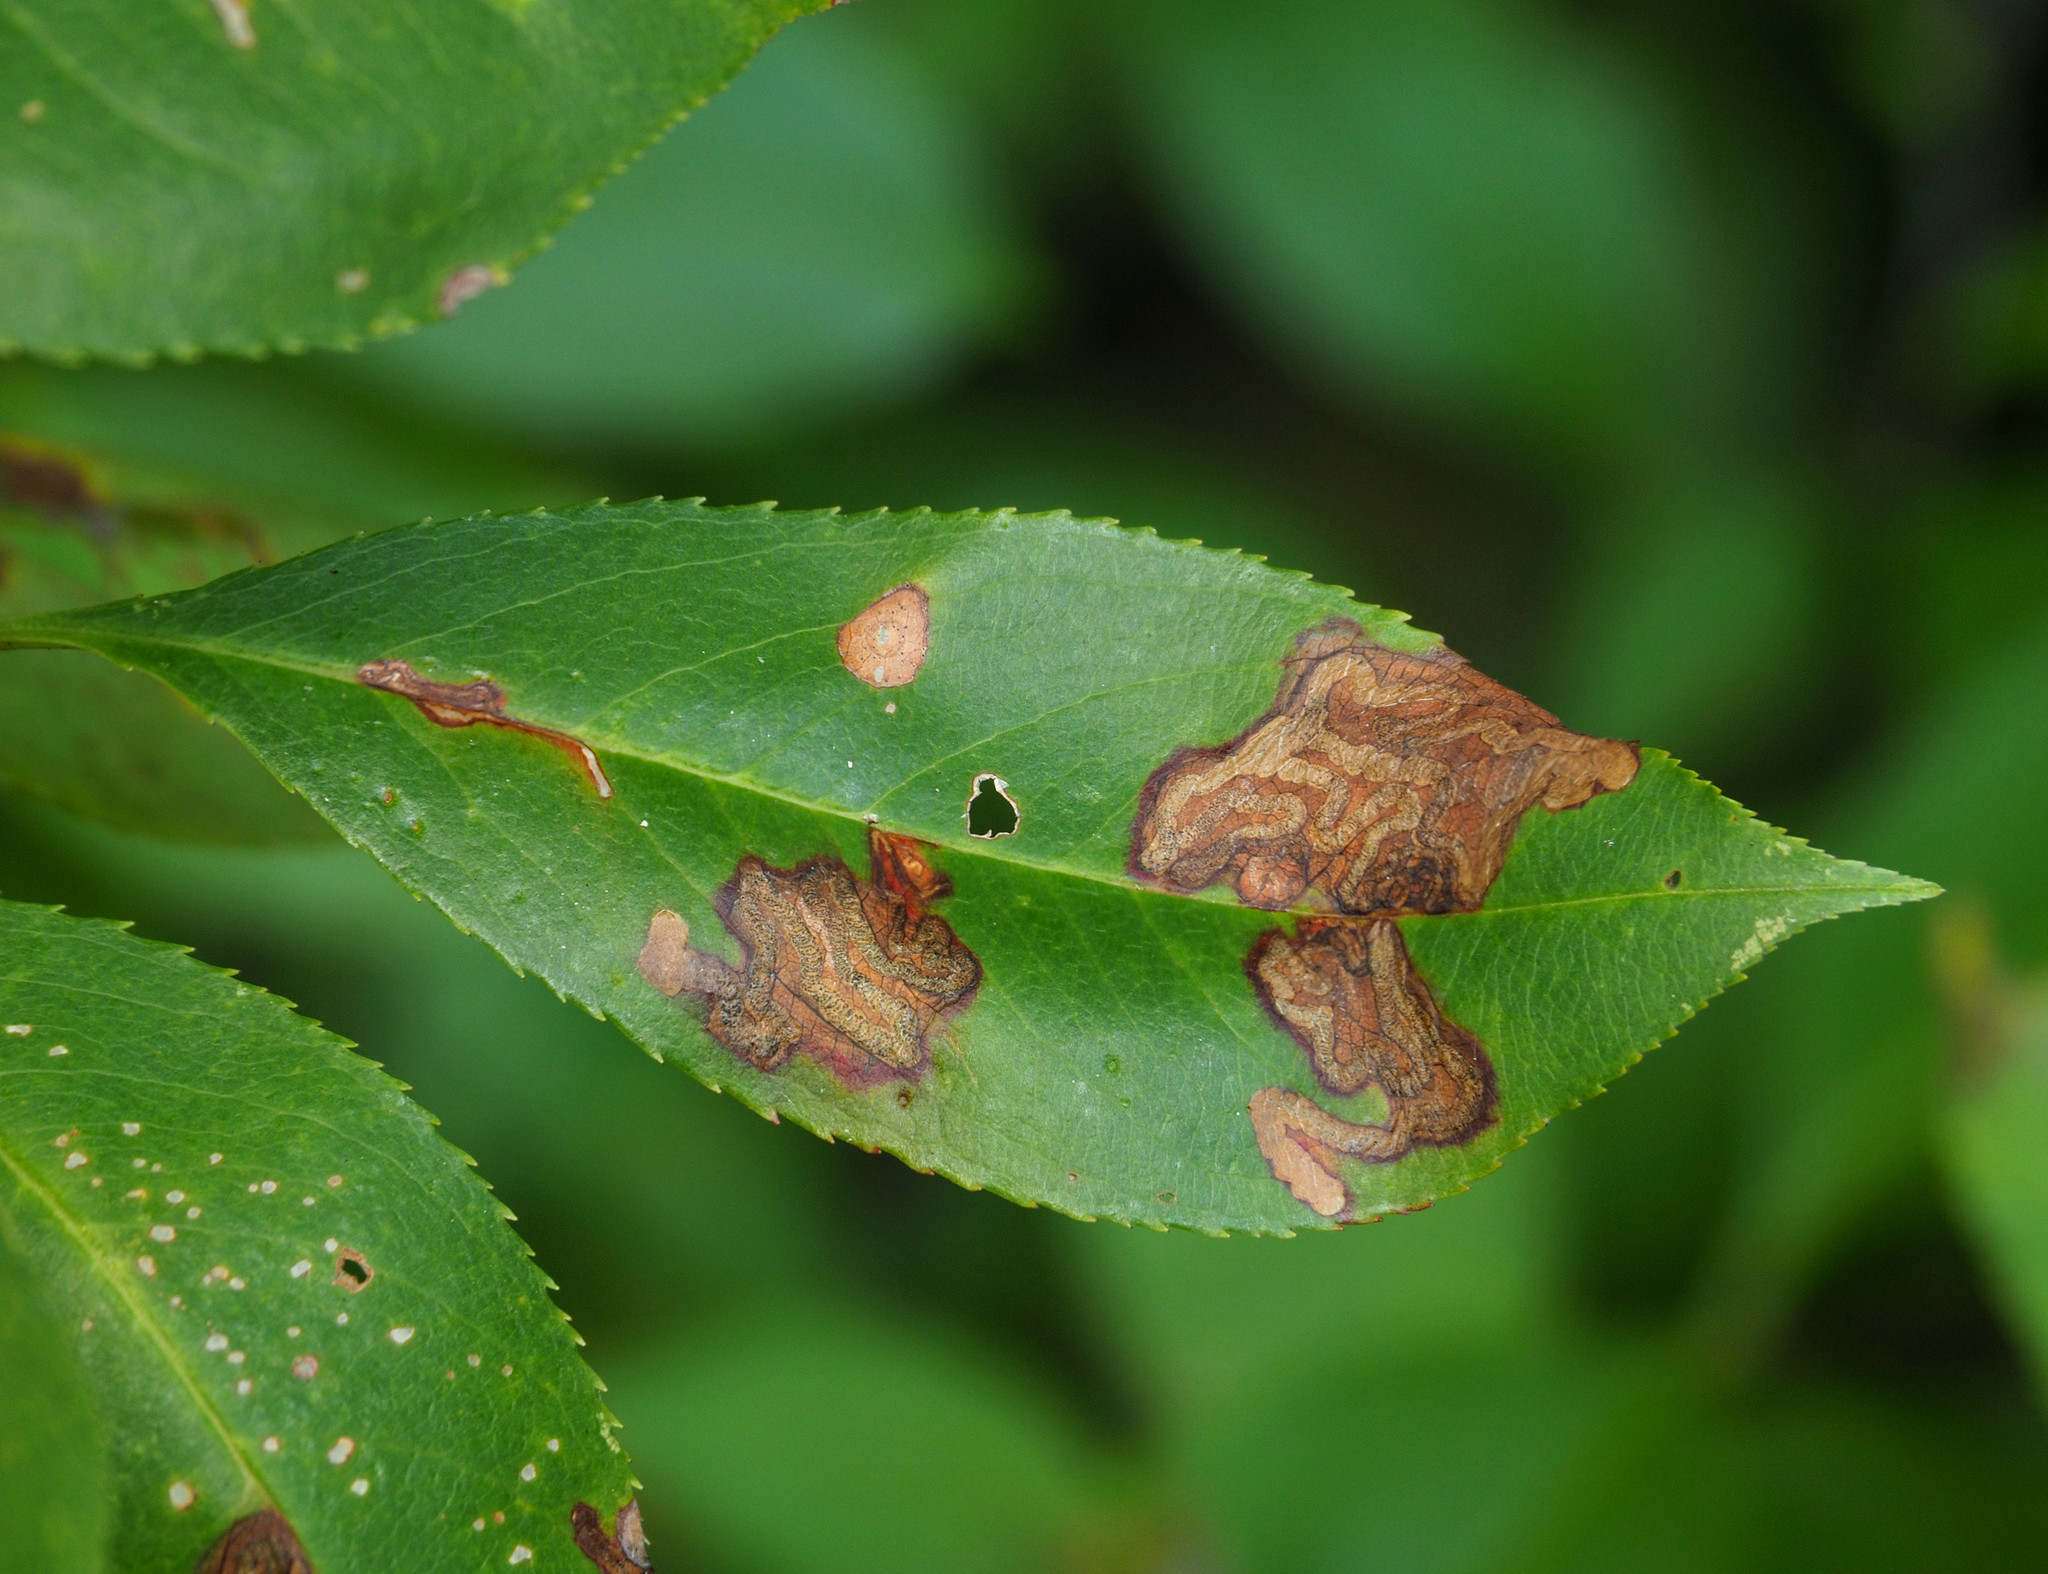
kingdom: Animalia
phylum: Arthropoda
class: Insecta
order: Lepidoptera
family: Nepticulidae
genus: Stigmella
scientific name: Stigmella prunifoliella
